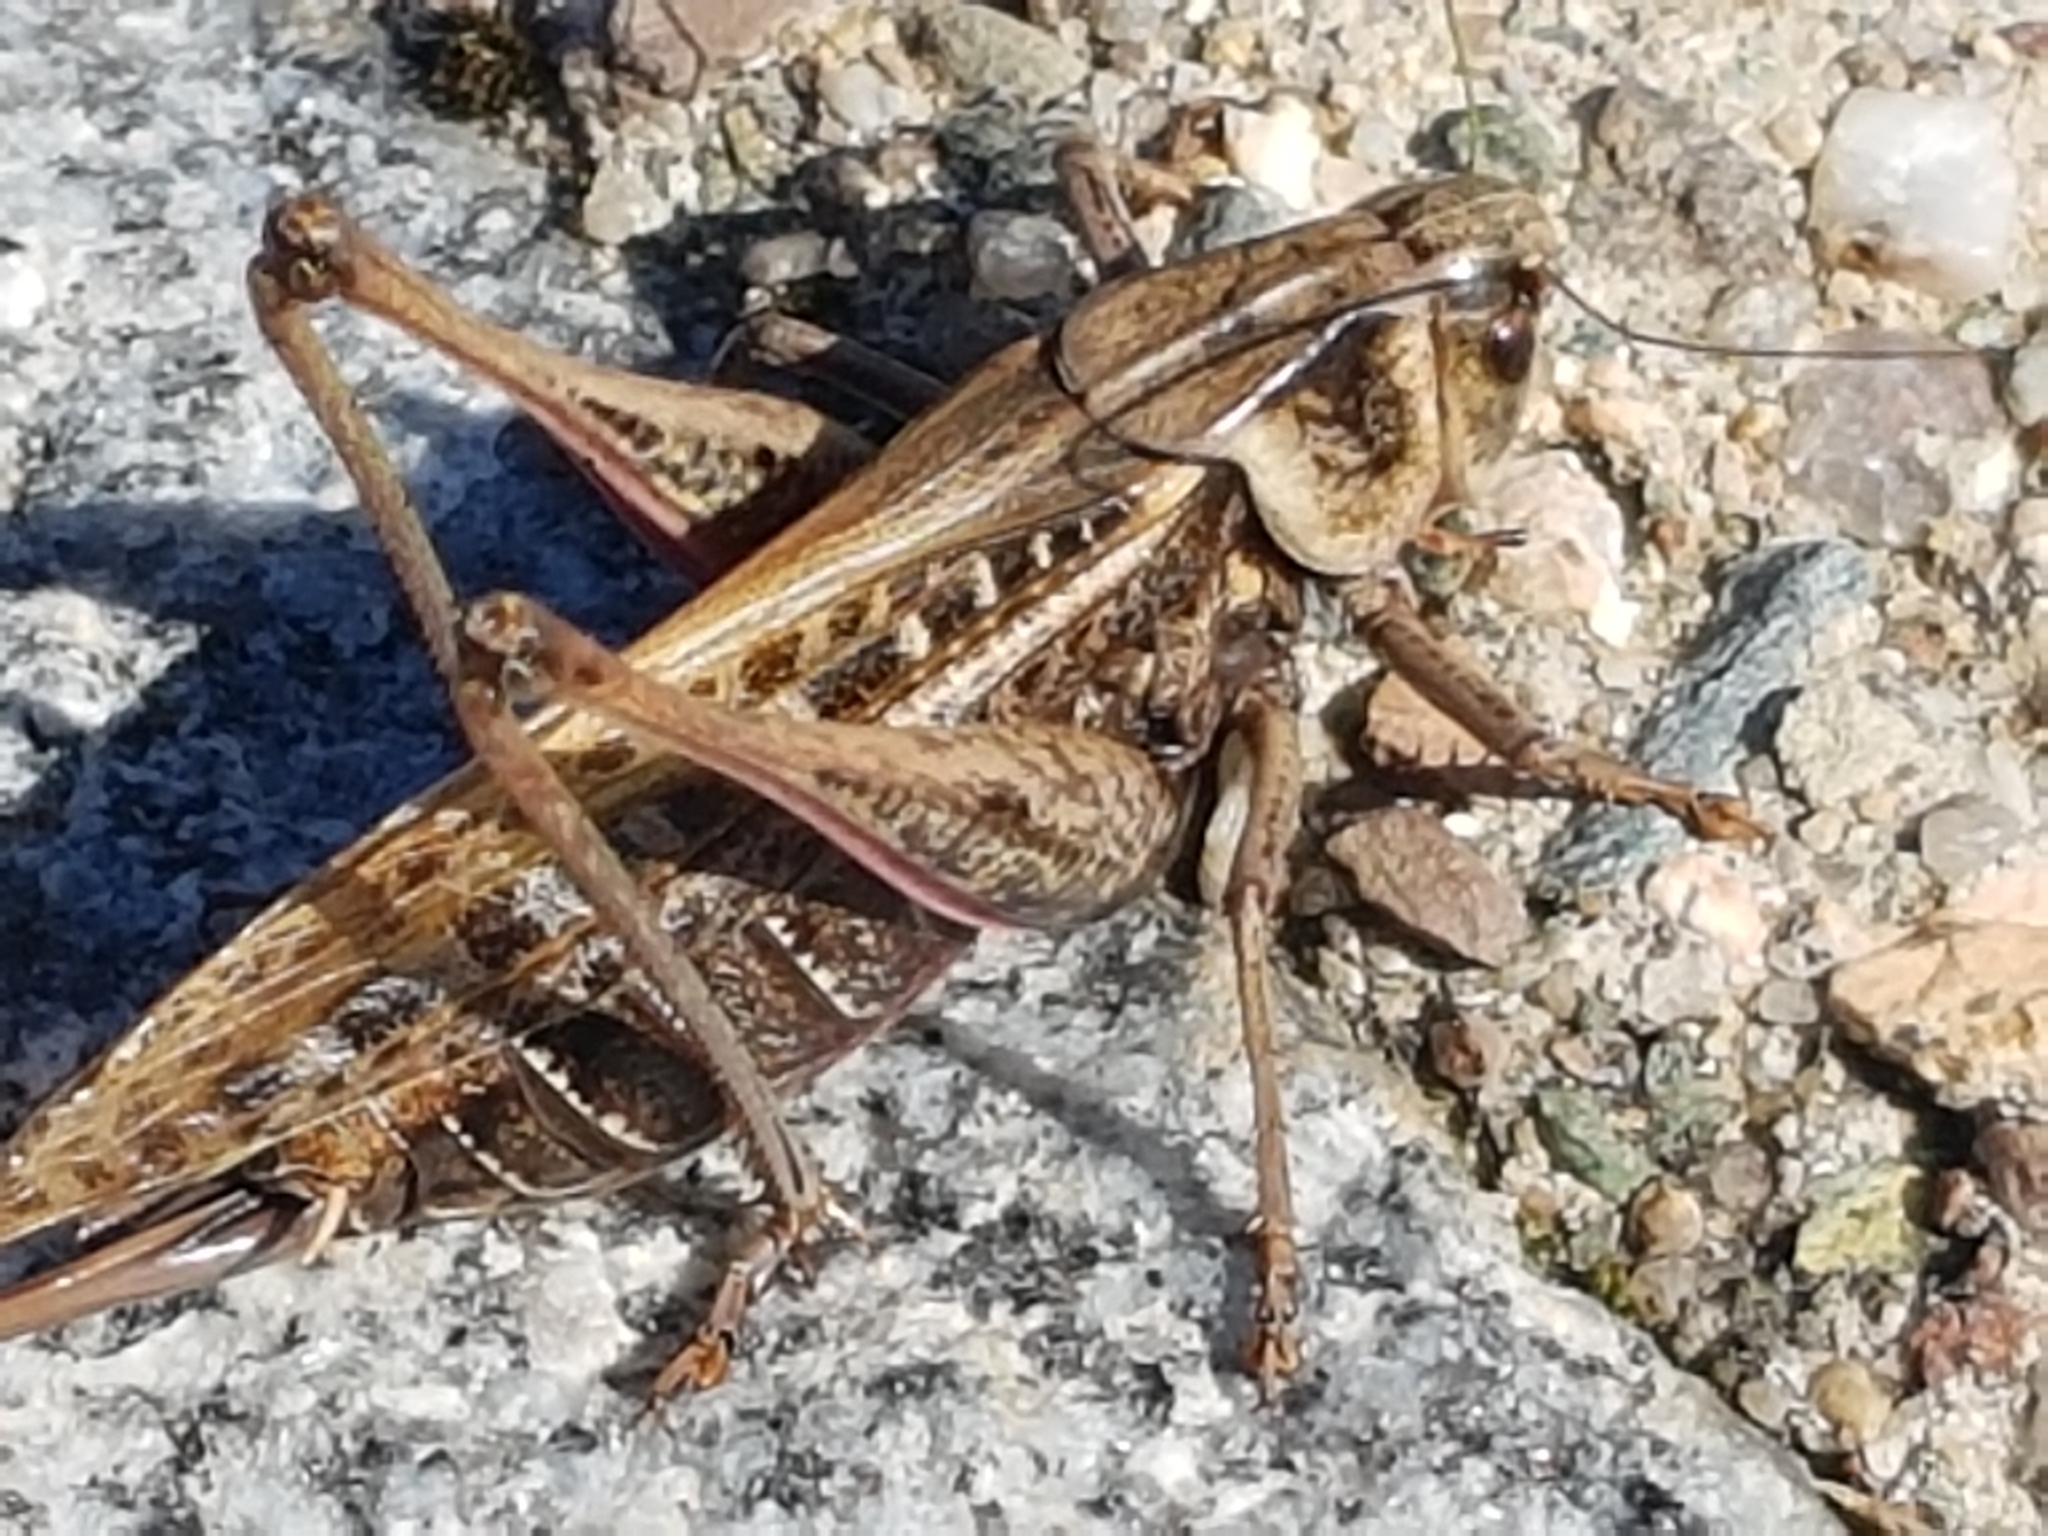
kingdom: Animalia
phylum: Arthropoda
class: Insecta
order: Orthoptera
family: Tettigoniidae
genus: Decticus
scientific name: Decticus verrucivorus
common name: Wart-biter
